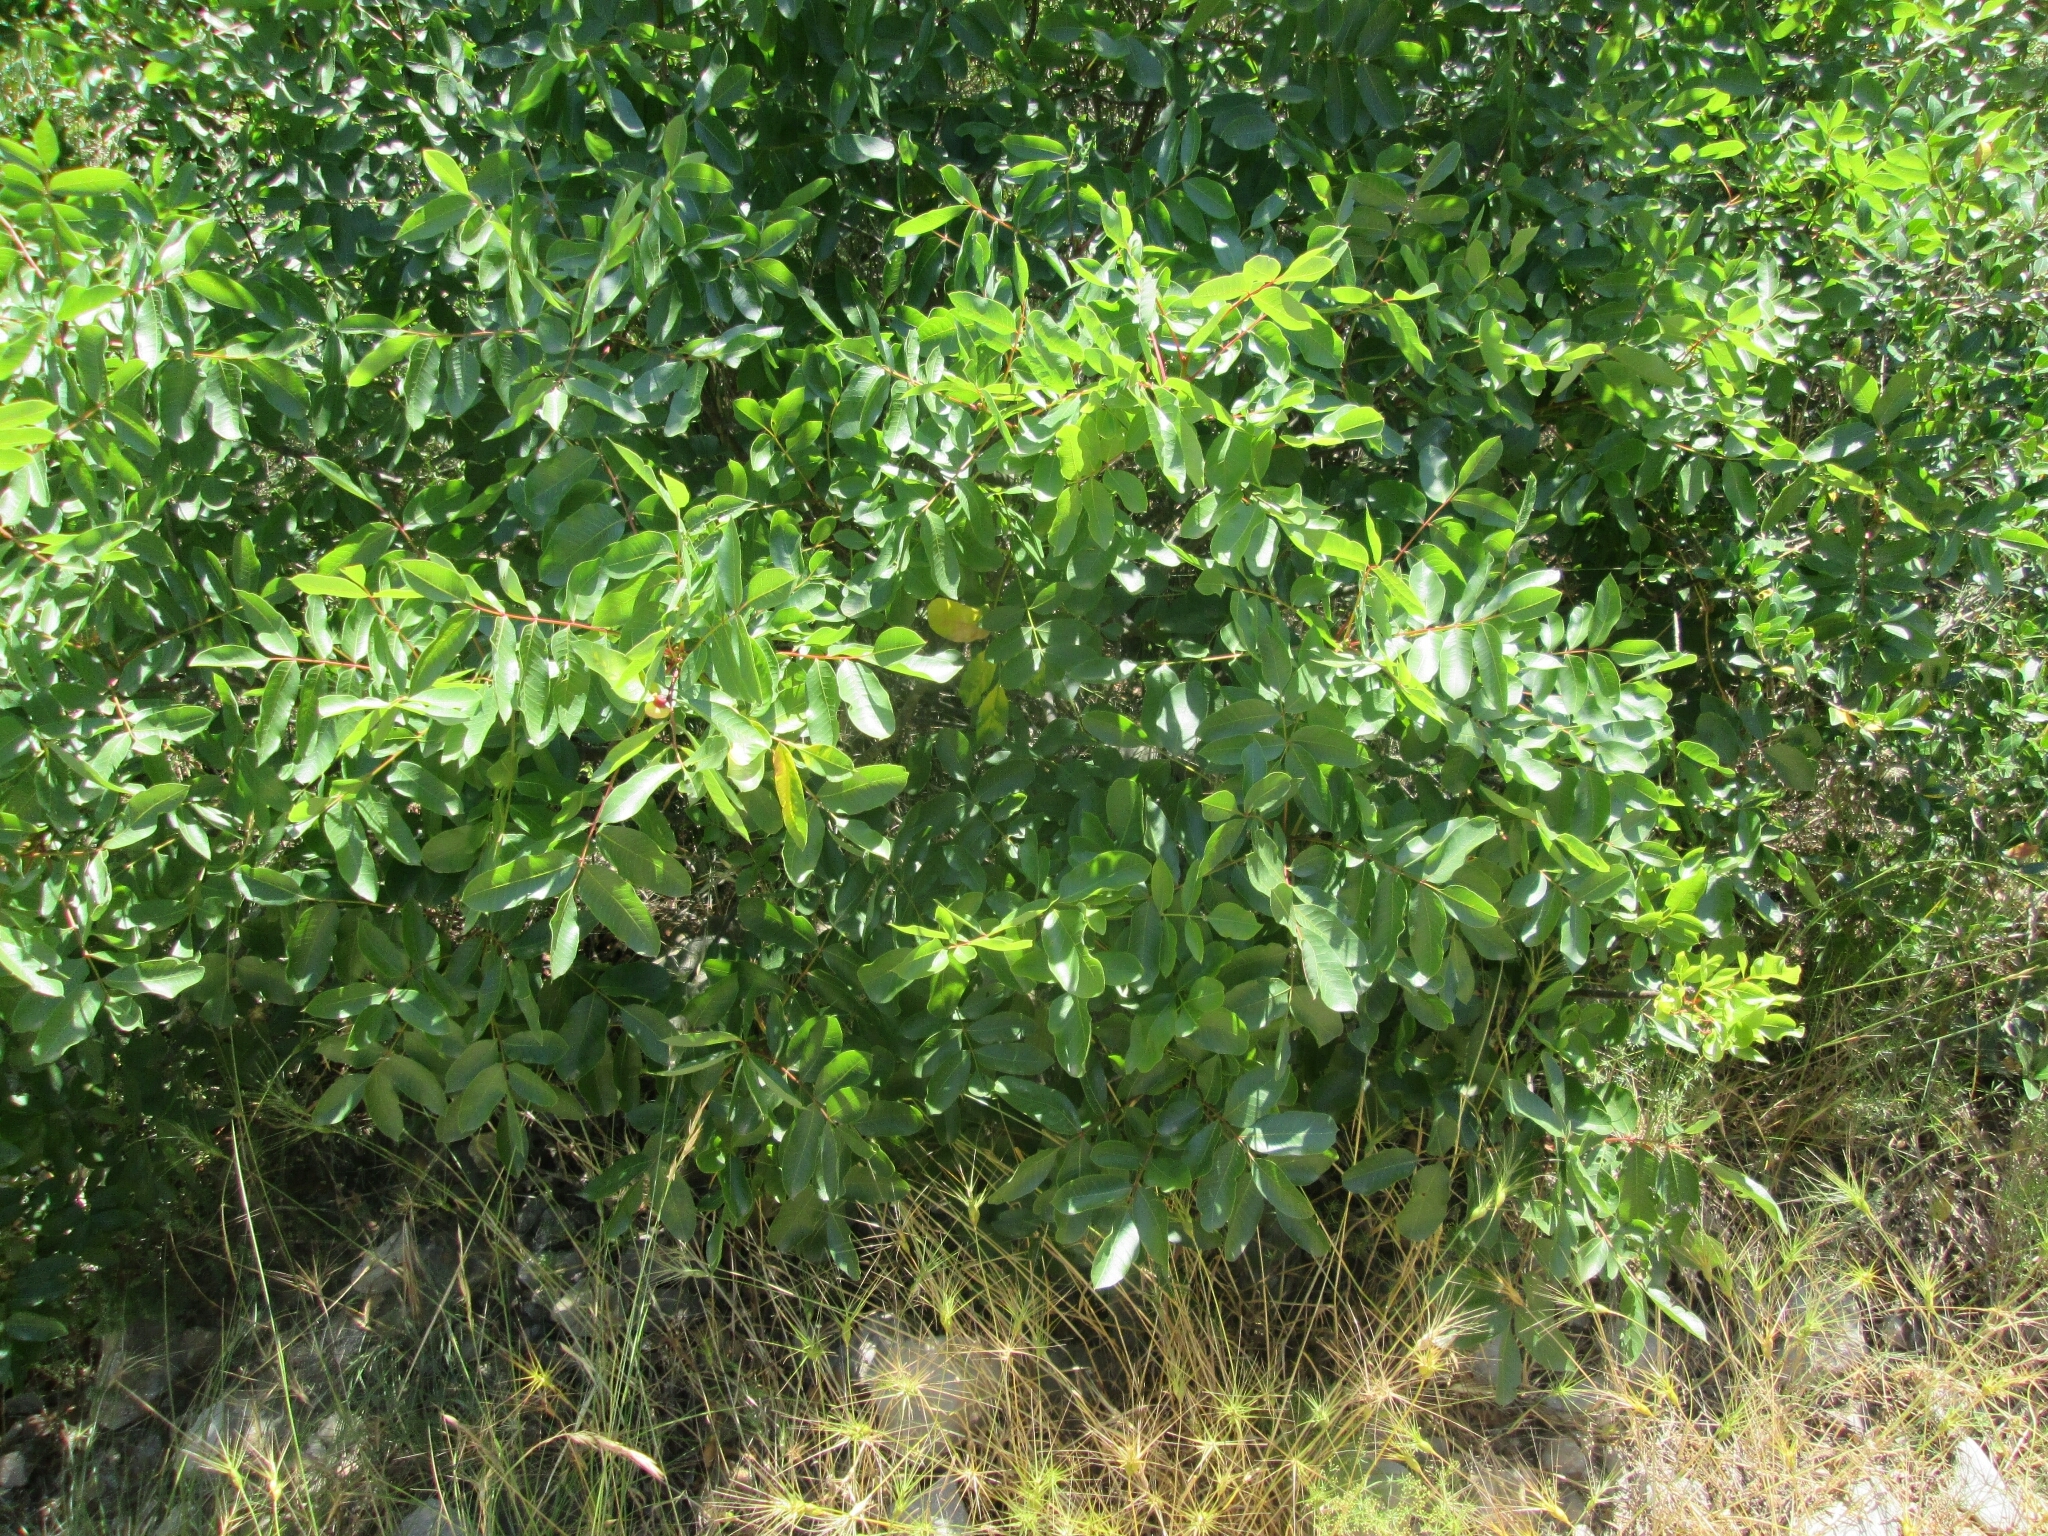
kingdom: Plantae
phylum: Tracheophyta
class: Magnoliopsida
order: Sapindales
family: Anacardiaceae
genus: Pistacia
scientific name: Pistacia terebinthus
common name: Terebinth
